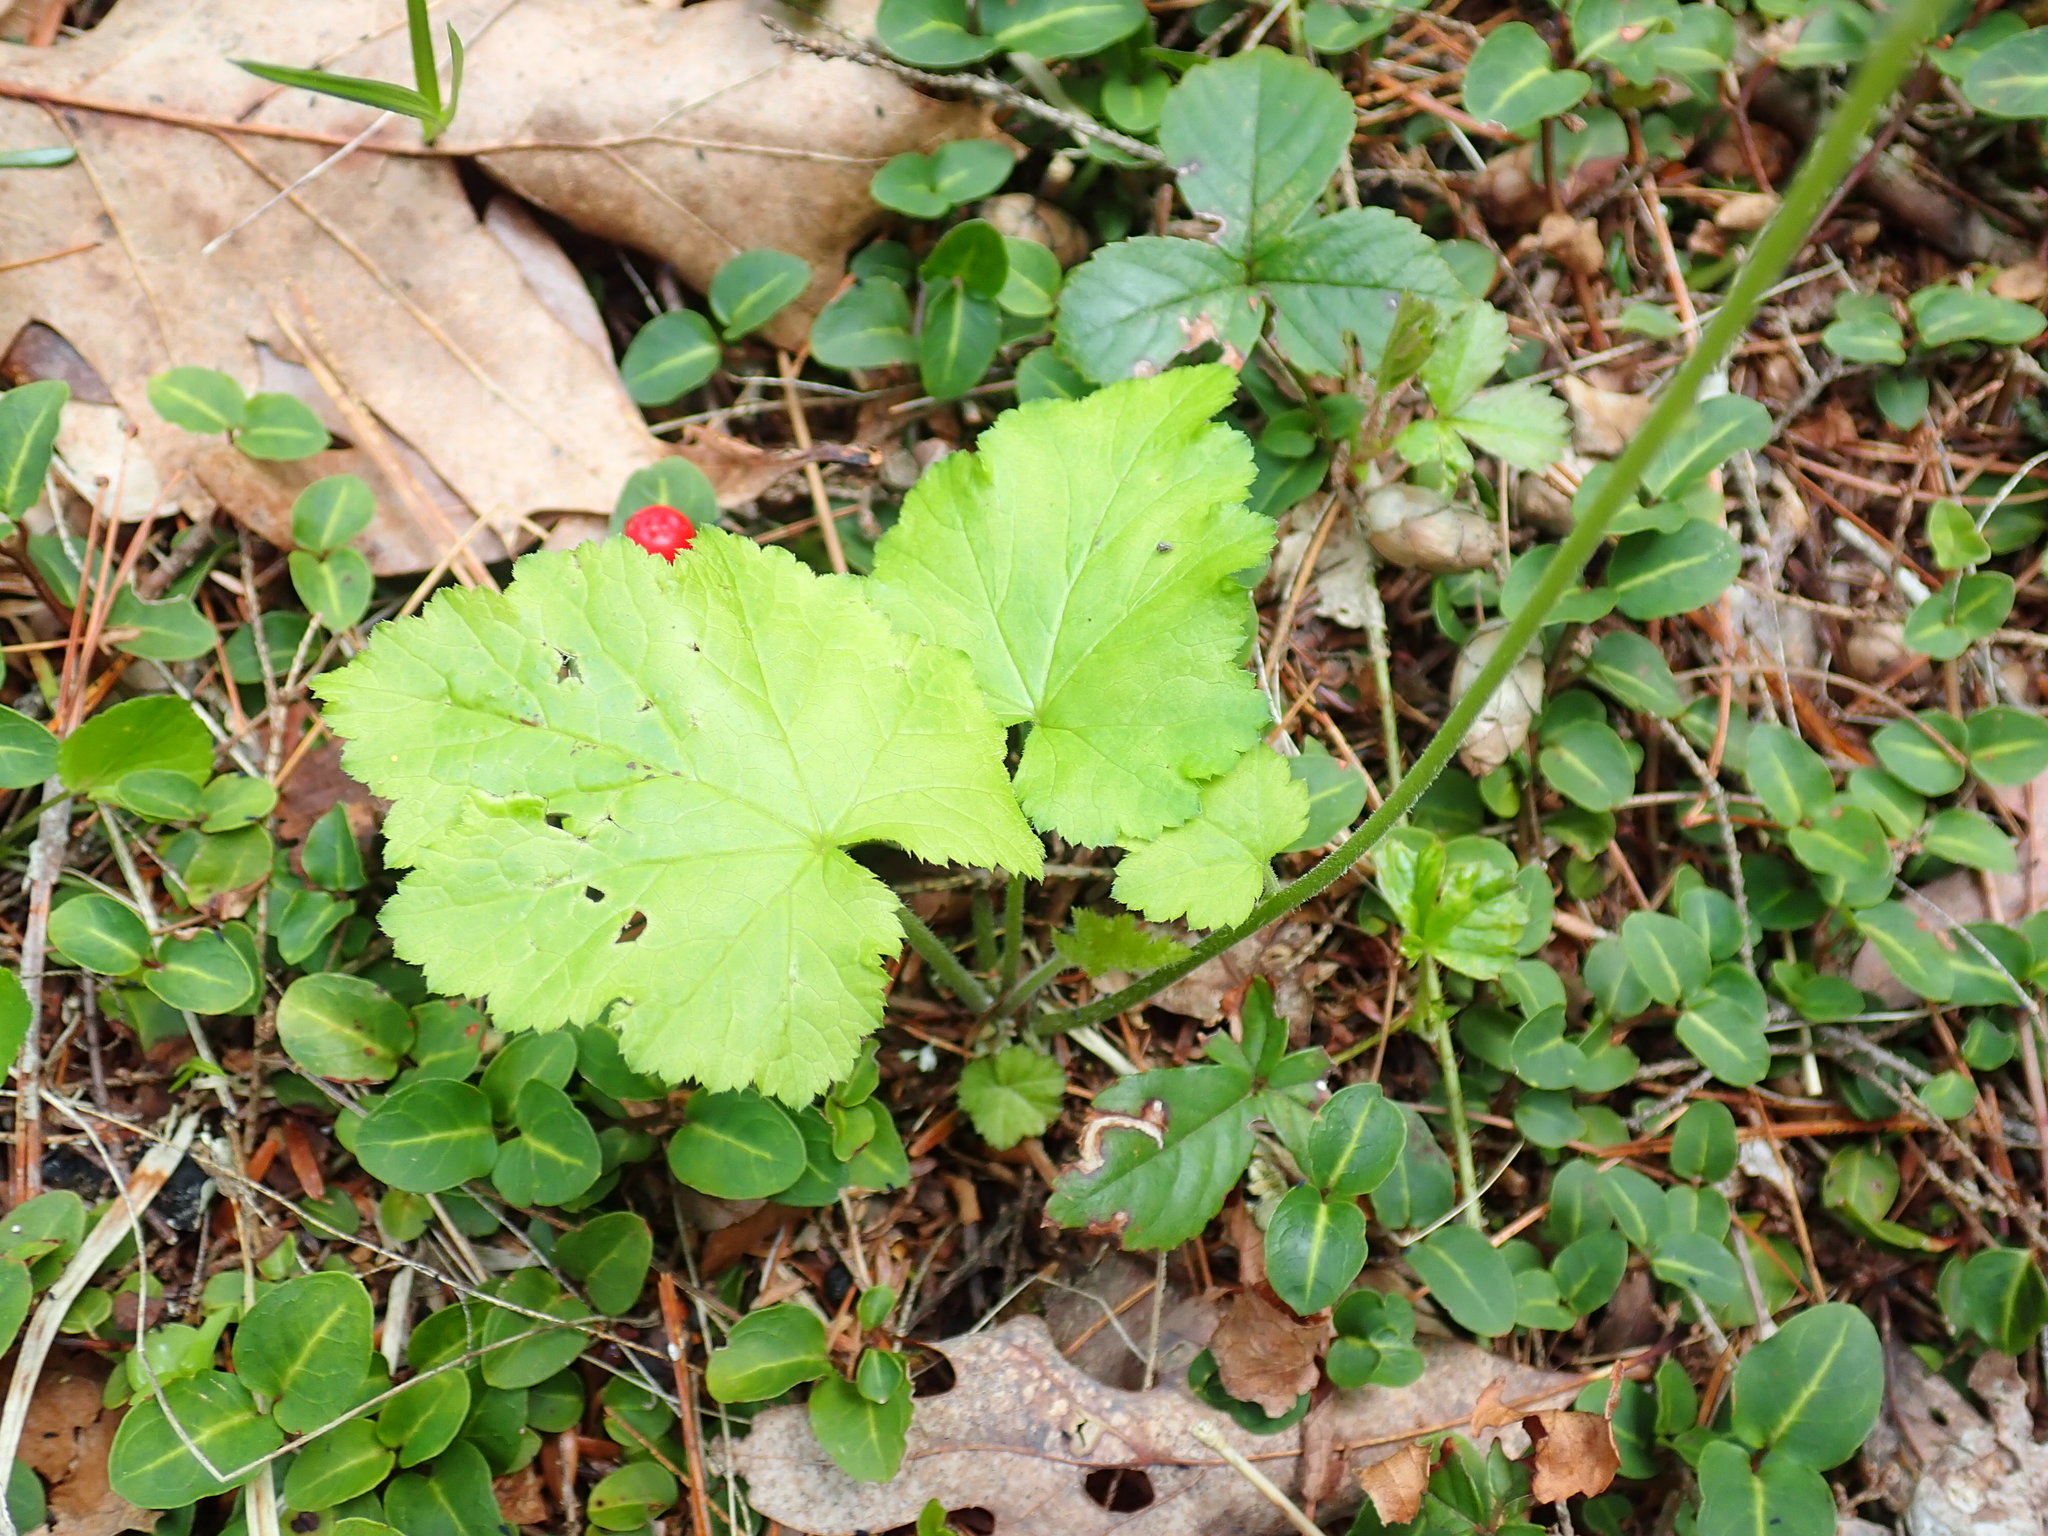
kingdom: Plantae
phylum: Tracheophyta
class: Magnoliopsida
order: Saxifragales
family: Saxifragaceae
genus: Tiarella
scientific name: Tiarella stolonifera
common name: Stoloniferous foamflower
